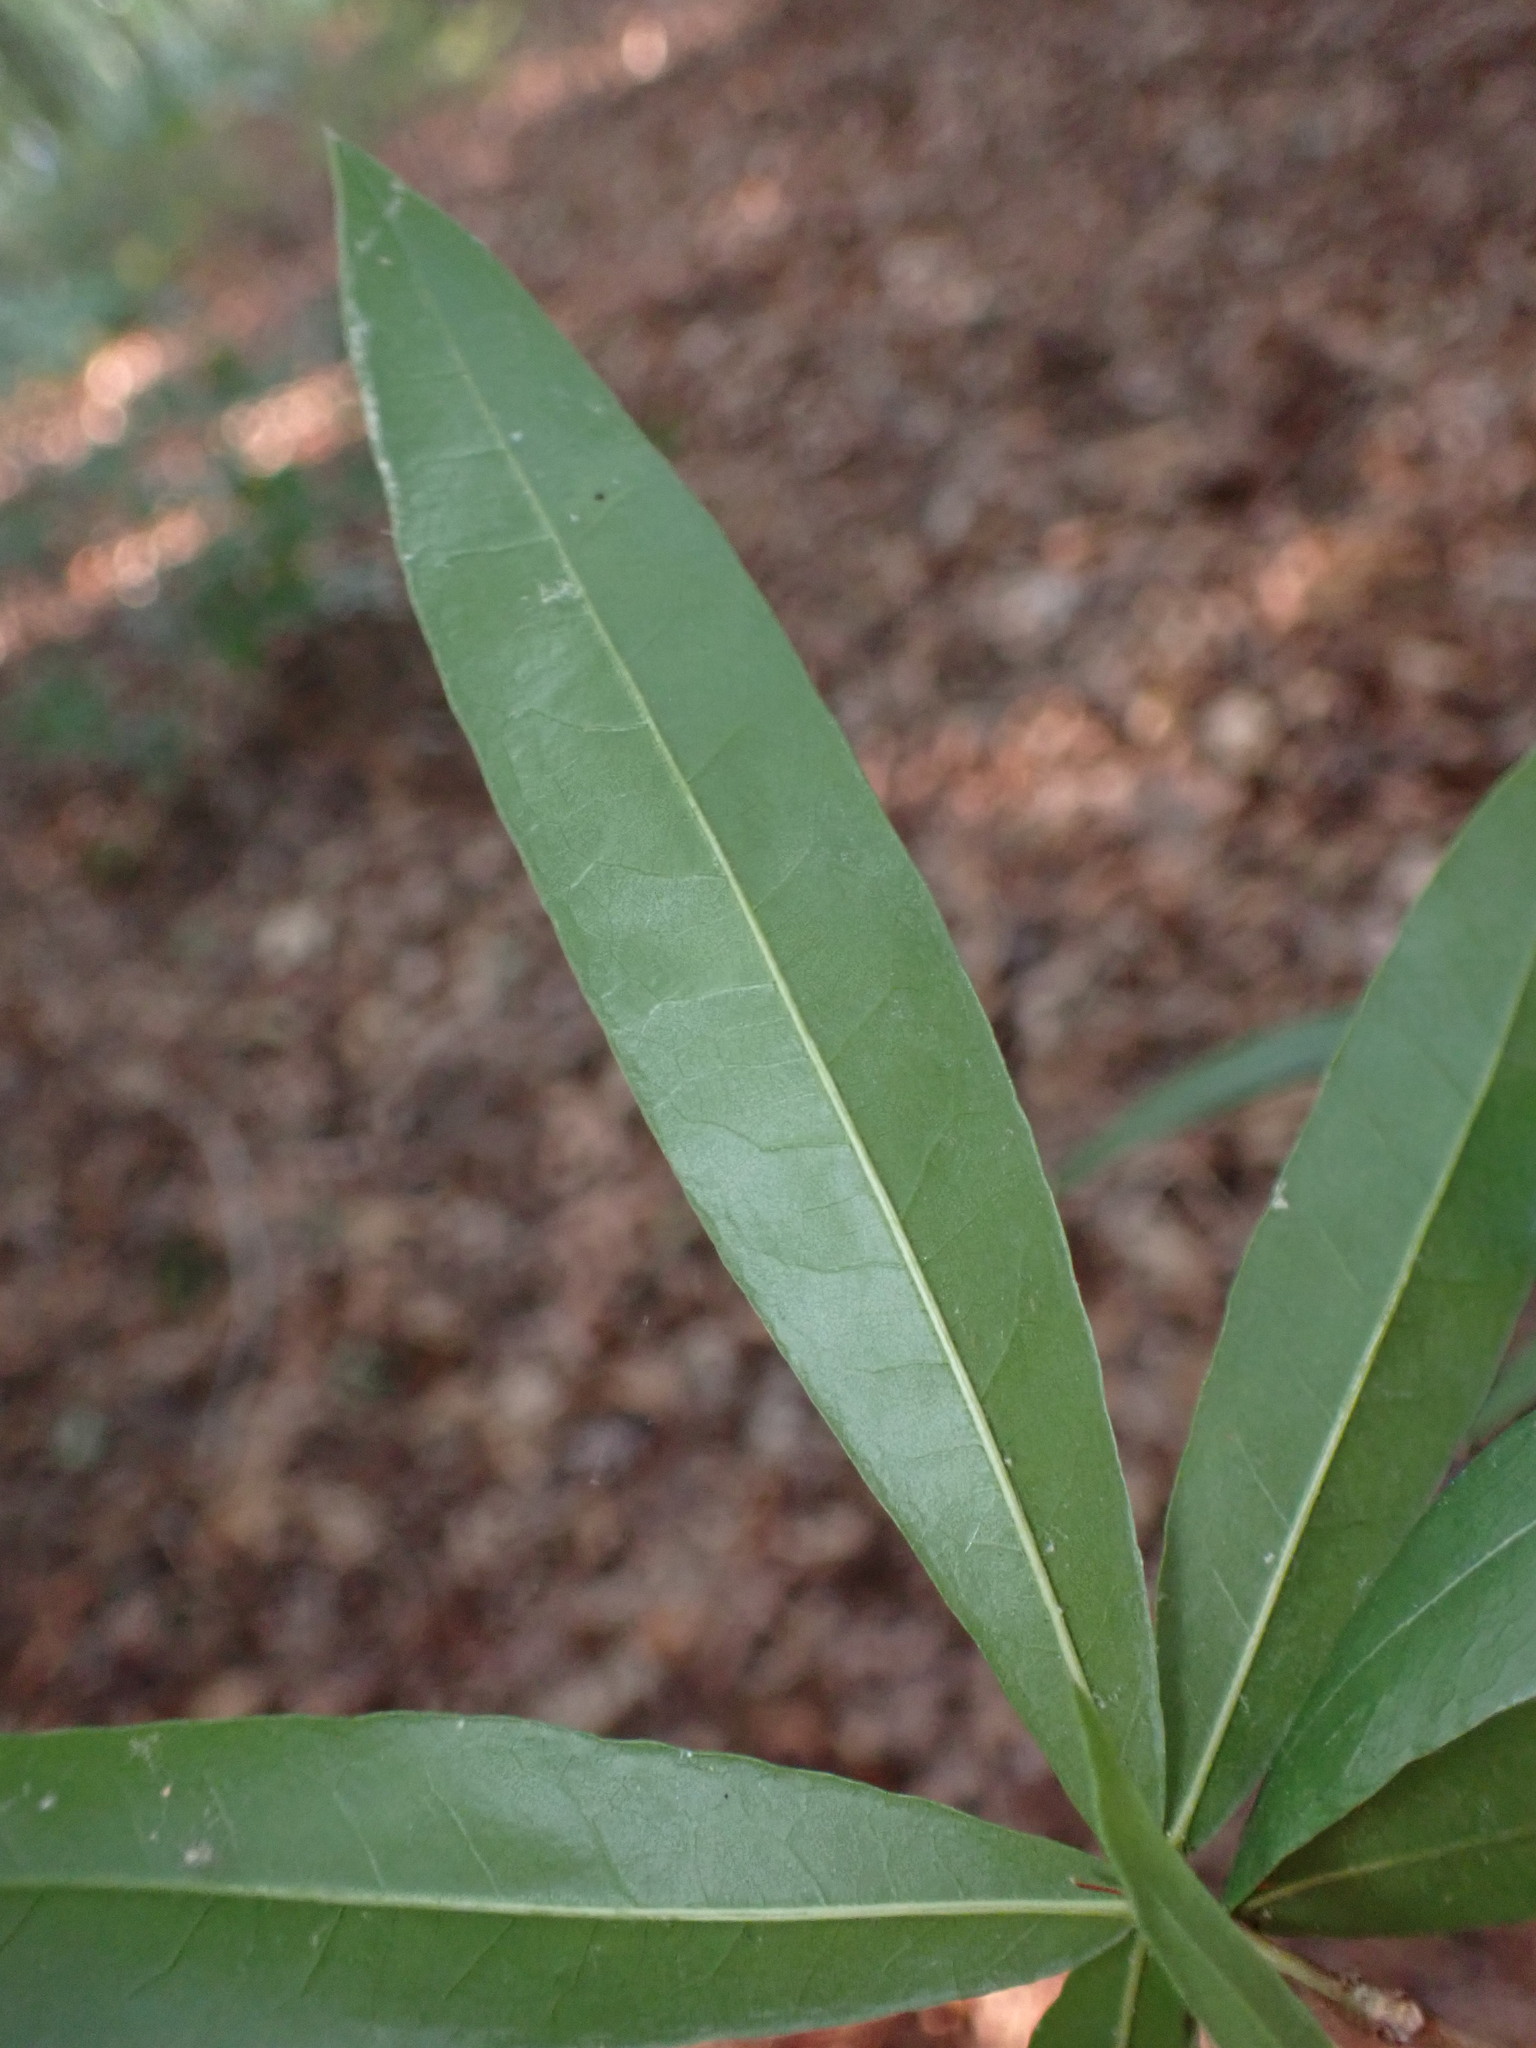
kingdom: Plantae
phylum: Tracheophyta
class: Magnoliopsida
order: Fagales
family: Fagaceae
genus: Quercus
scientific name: Quercus phellos
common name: Willow oak
